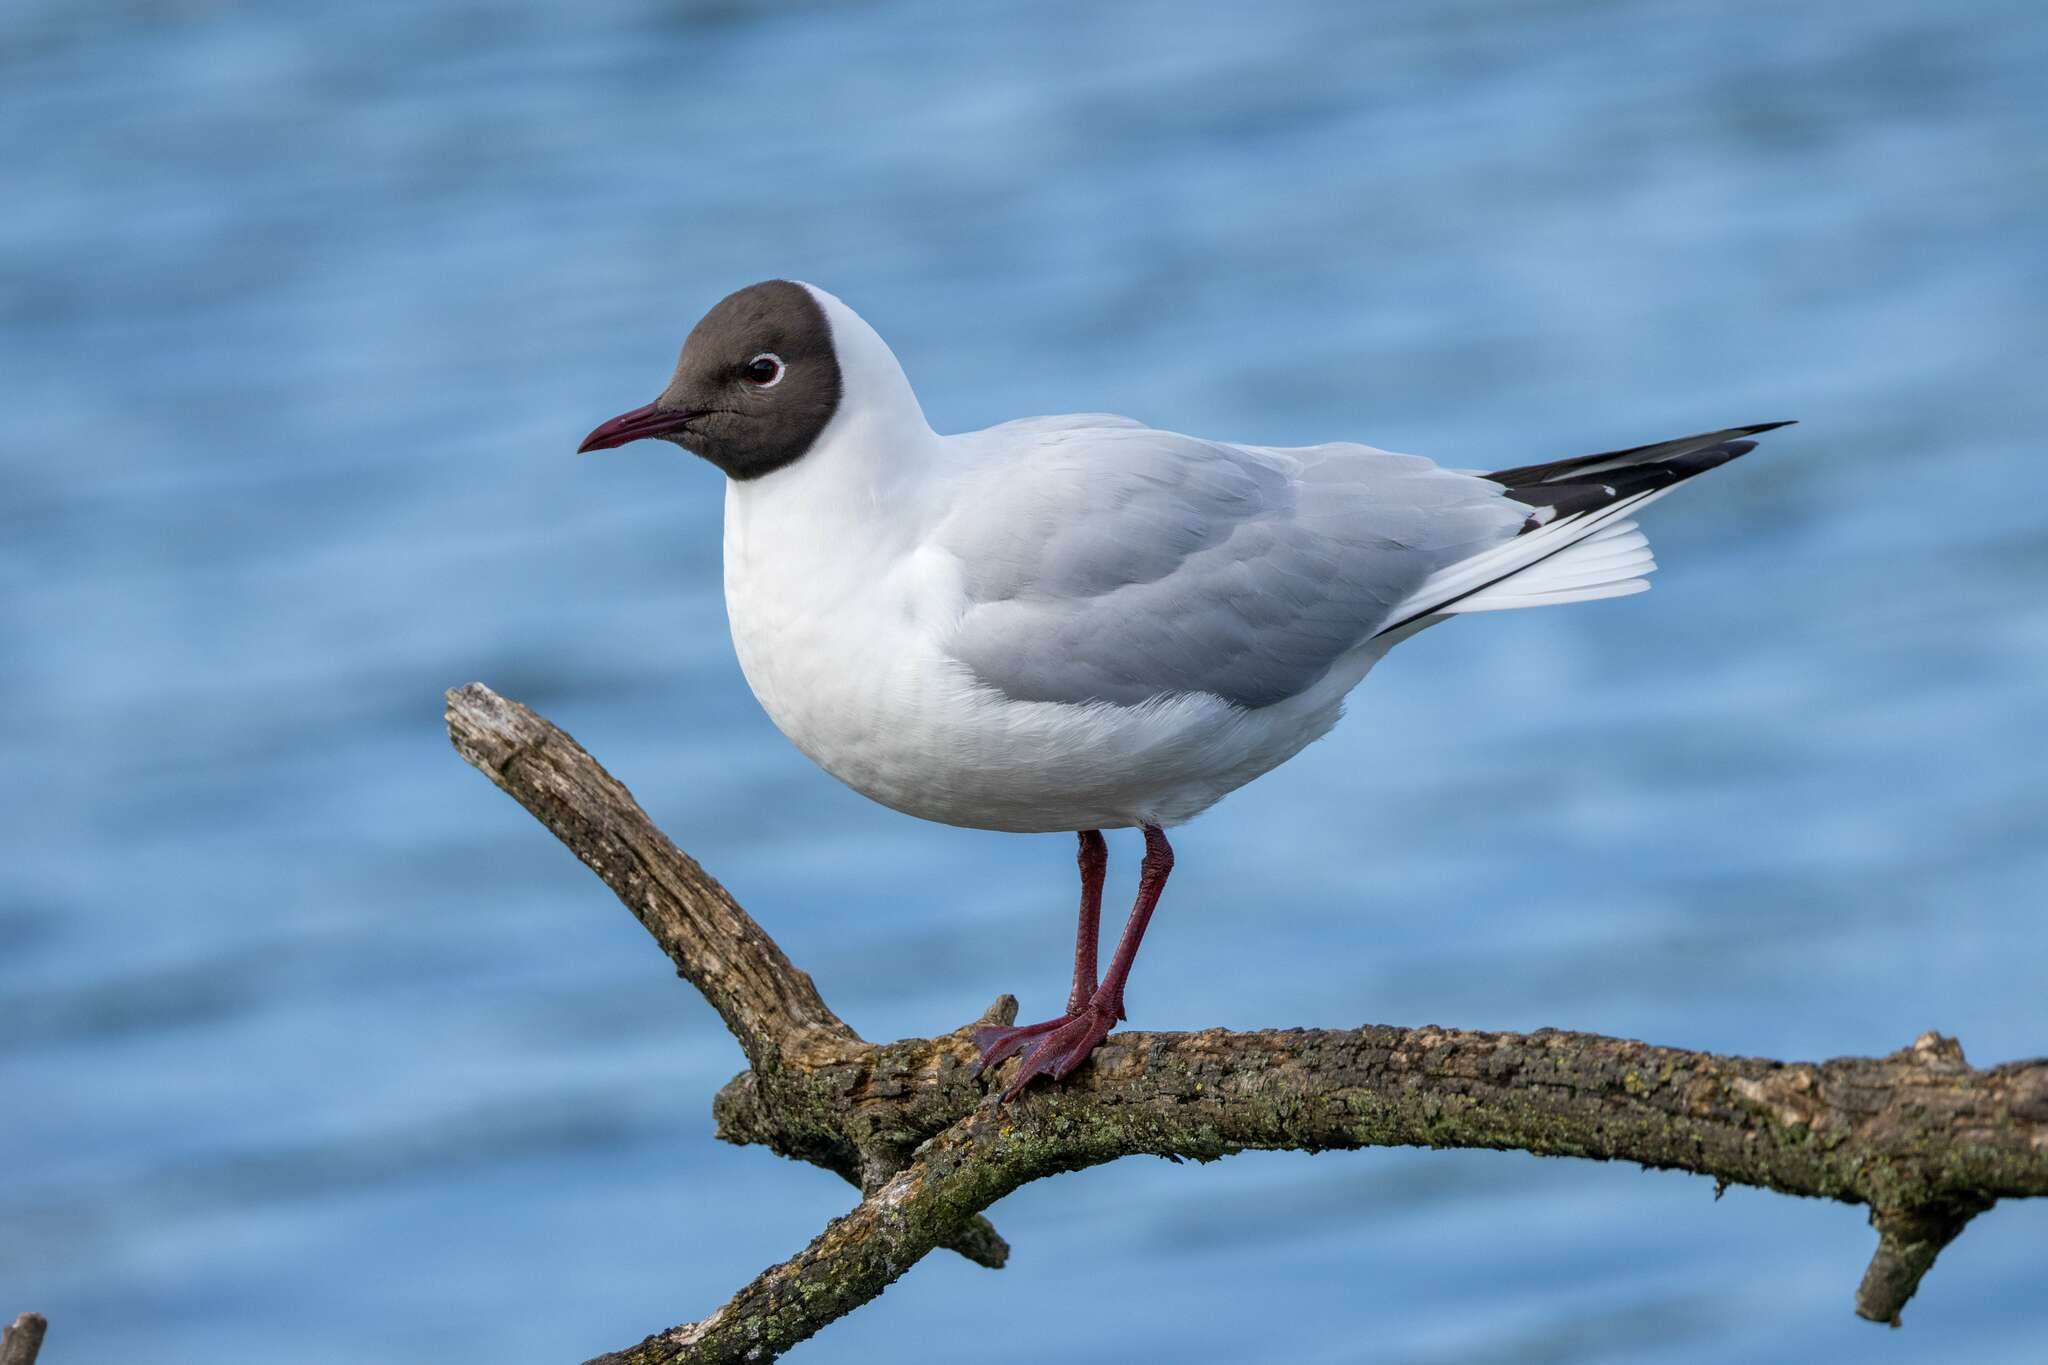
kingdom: Animalia
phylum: Chordata
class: Aves
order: Charadriiformes
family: Laridae
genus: Chroicocephalus
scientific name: Chroicocephalus ridibundus
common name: Black-headed gull
